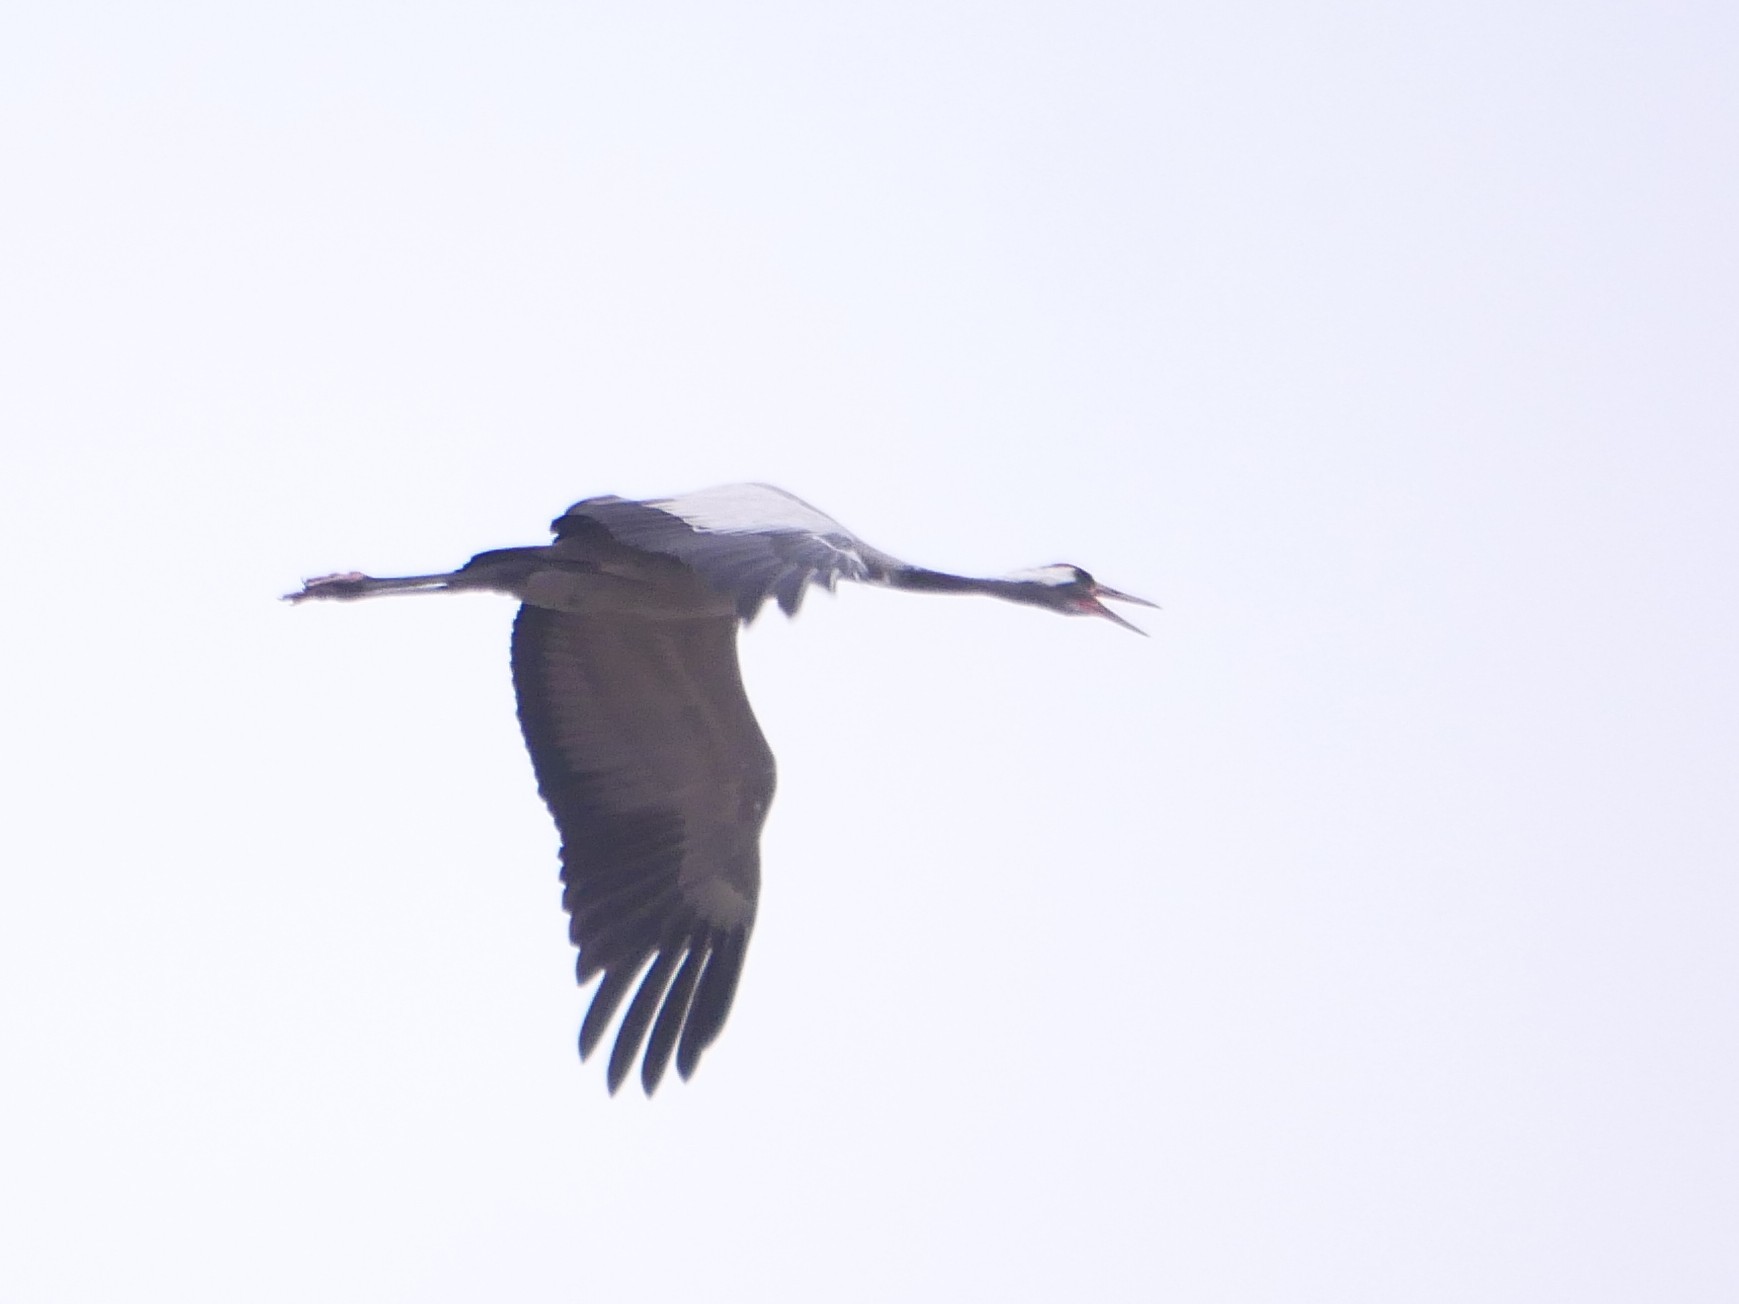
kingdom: Animalia
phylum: Chordata
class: Aves
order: Gruiformes
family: Gruidae
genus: Grus
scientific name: Grus grus
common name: Common crane
